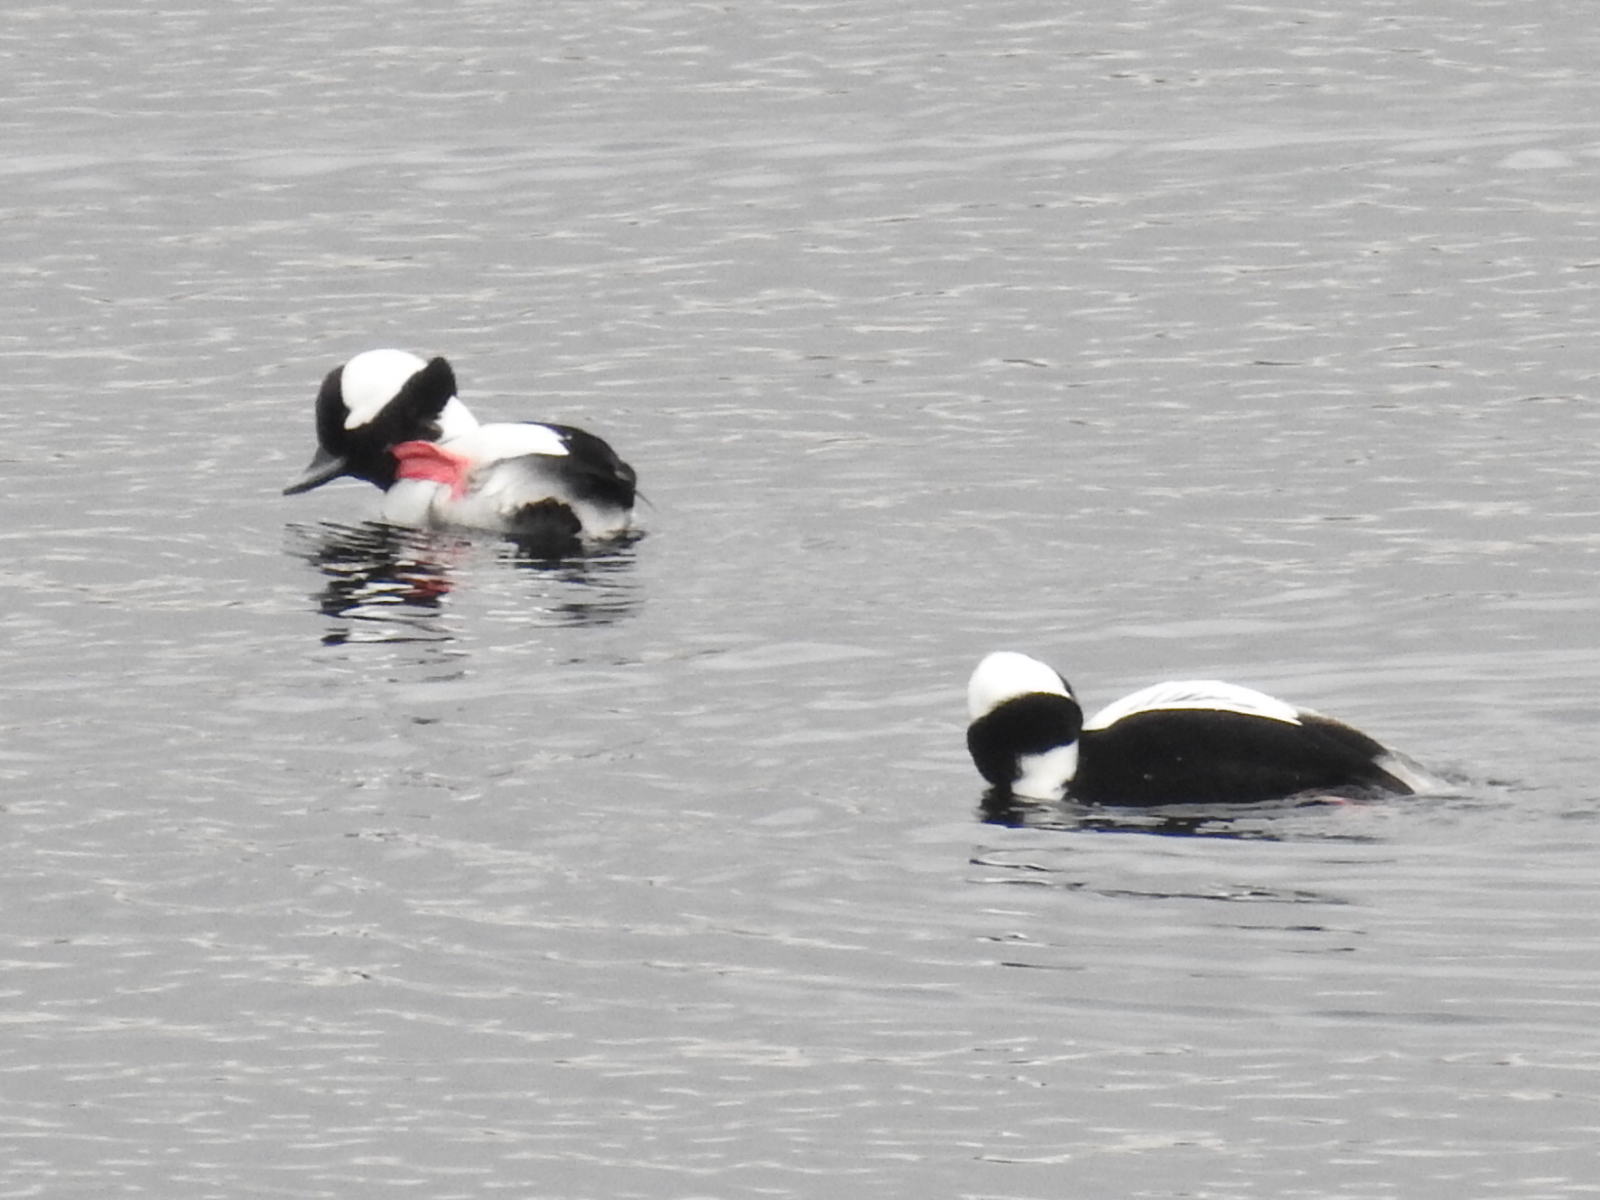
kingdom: Animalia
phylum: Chordata
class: Aves
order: Anseriformes
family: Anatidae
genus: Bucephala
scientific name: Bucephala albeola
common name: Bufflehead
